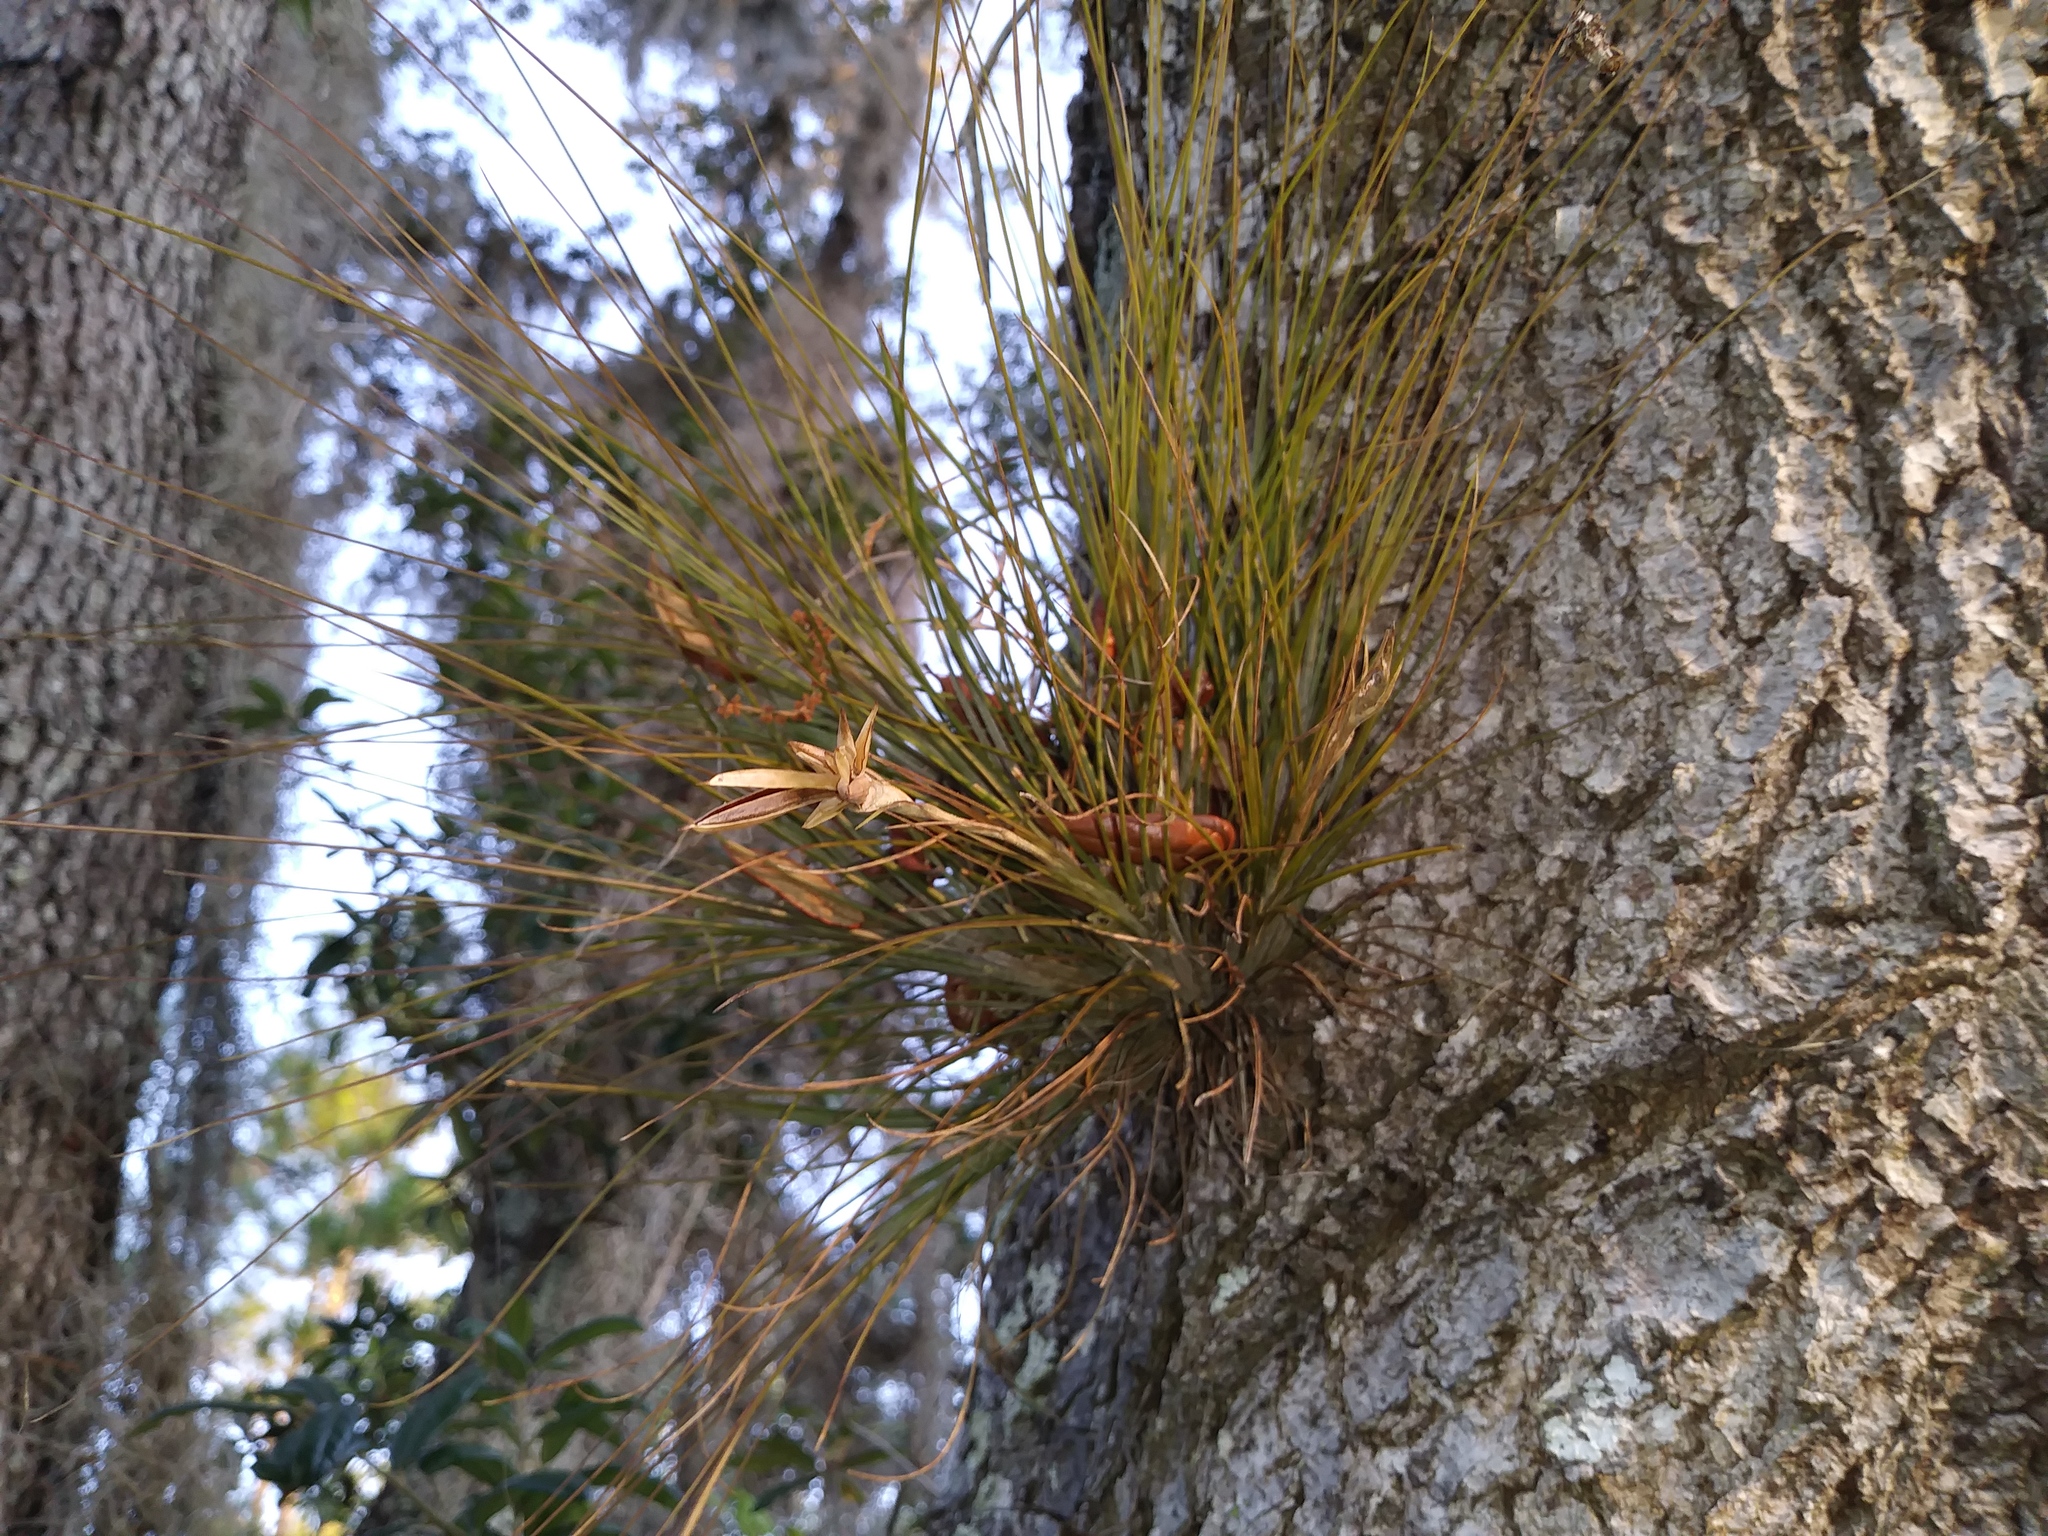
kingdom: Plantae
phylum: Tracheophyta
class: Liliopsida
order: Poales
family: Bromeliaceae
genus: Tillandsia
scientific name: Tillandsia setacea
